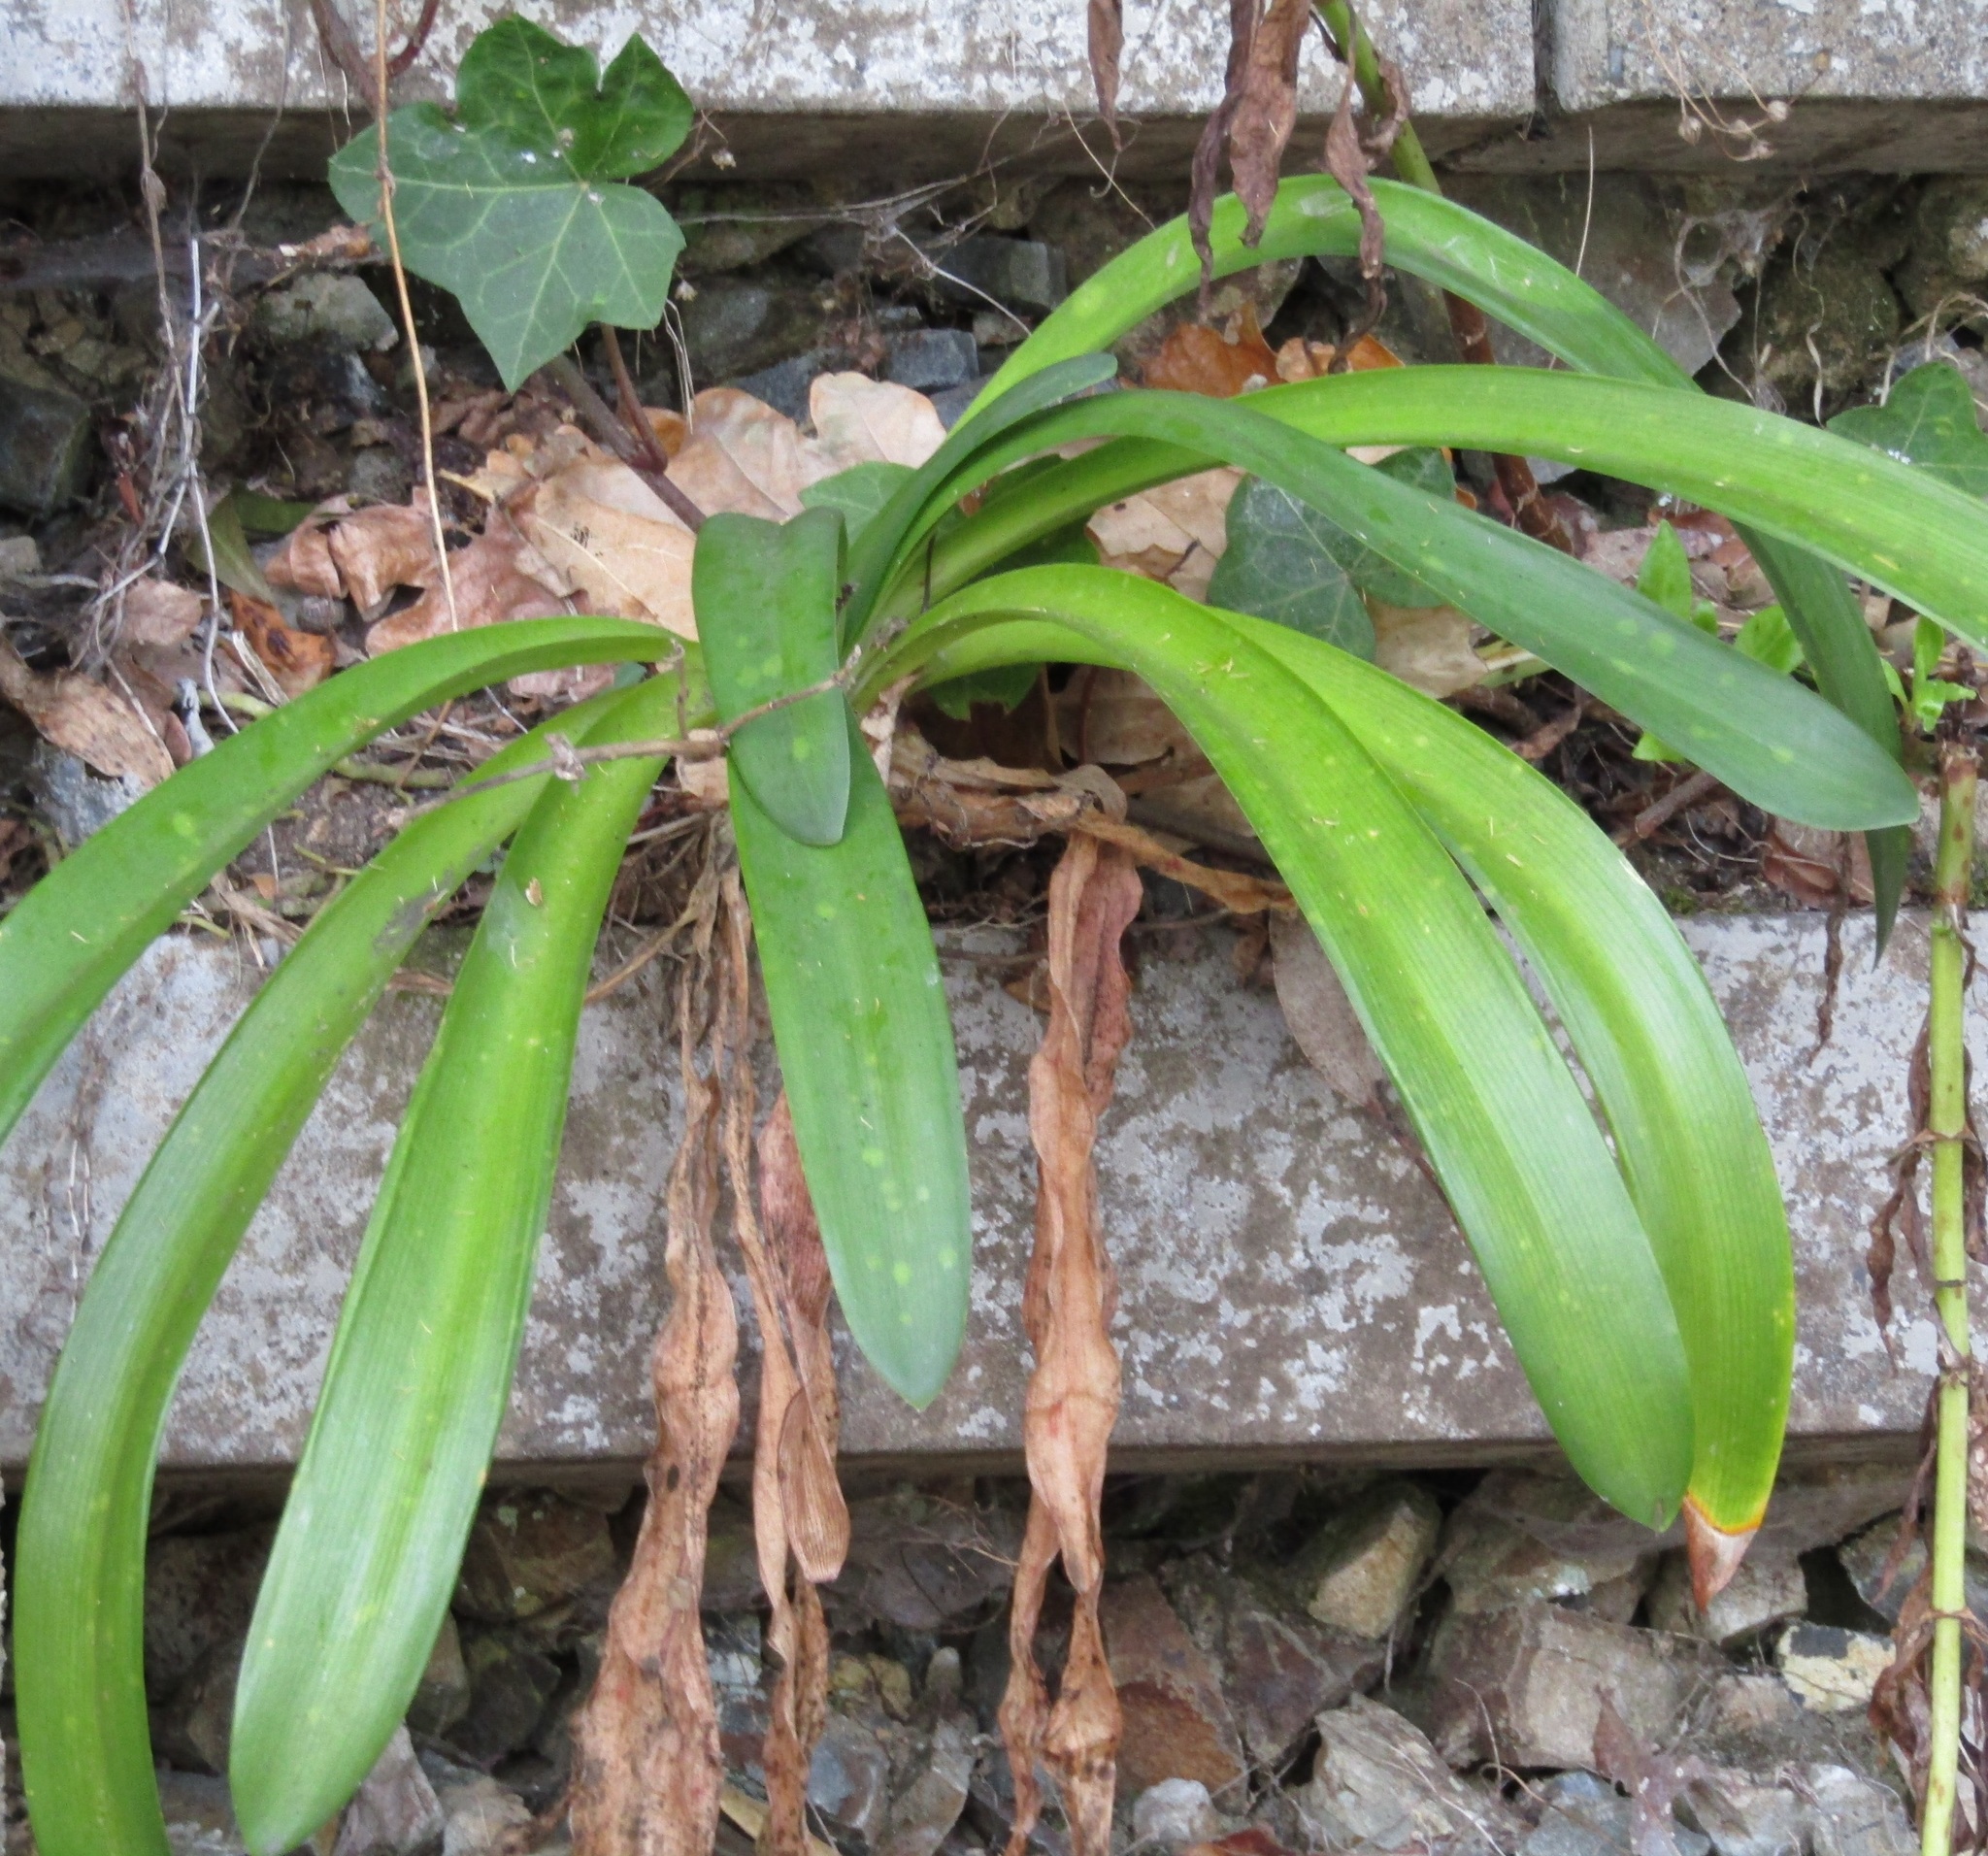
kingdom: Plantae
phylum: Tracheophyta
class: Liliopsida
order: Asparagales
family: Amaryllidaceae
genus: Agapanthus
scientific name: Agapanthus praecox
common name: African-lily
